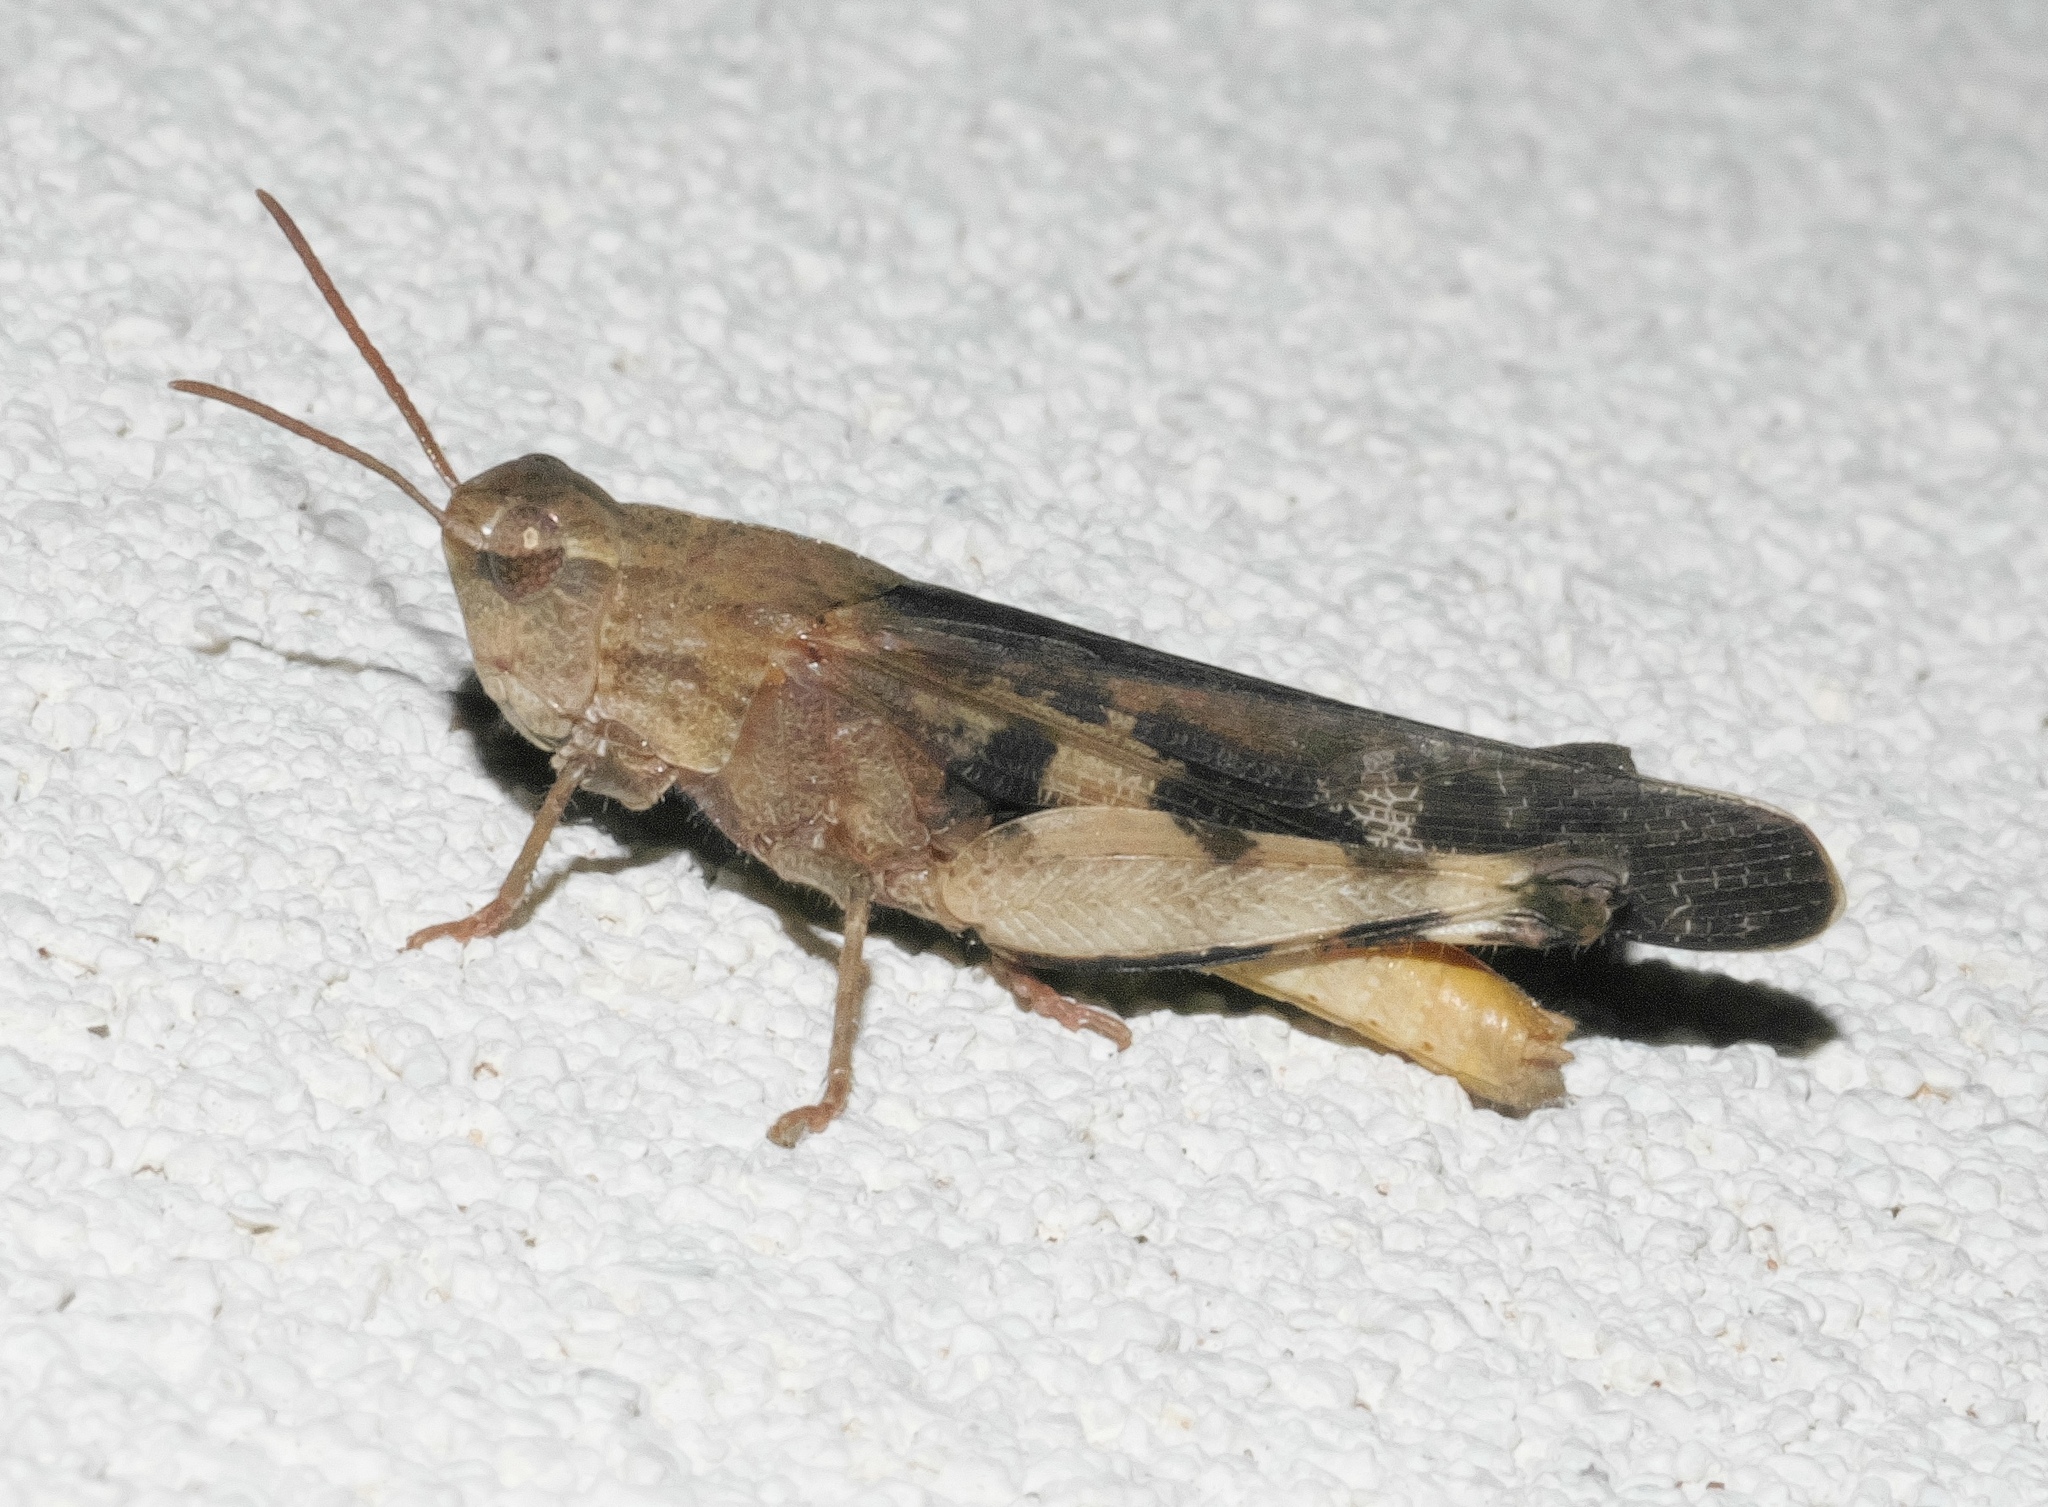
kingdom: Animalia
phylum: Arthropoda
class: Insecta
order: Orthoptera
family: Acrididae
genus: Chortophaga
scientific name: Chortophaga viridifasciata
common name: Green-striped grasshopper
